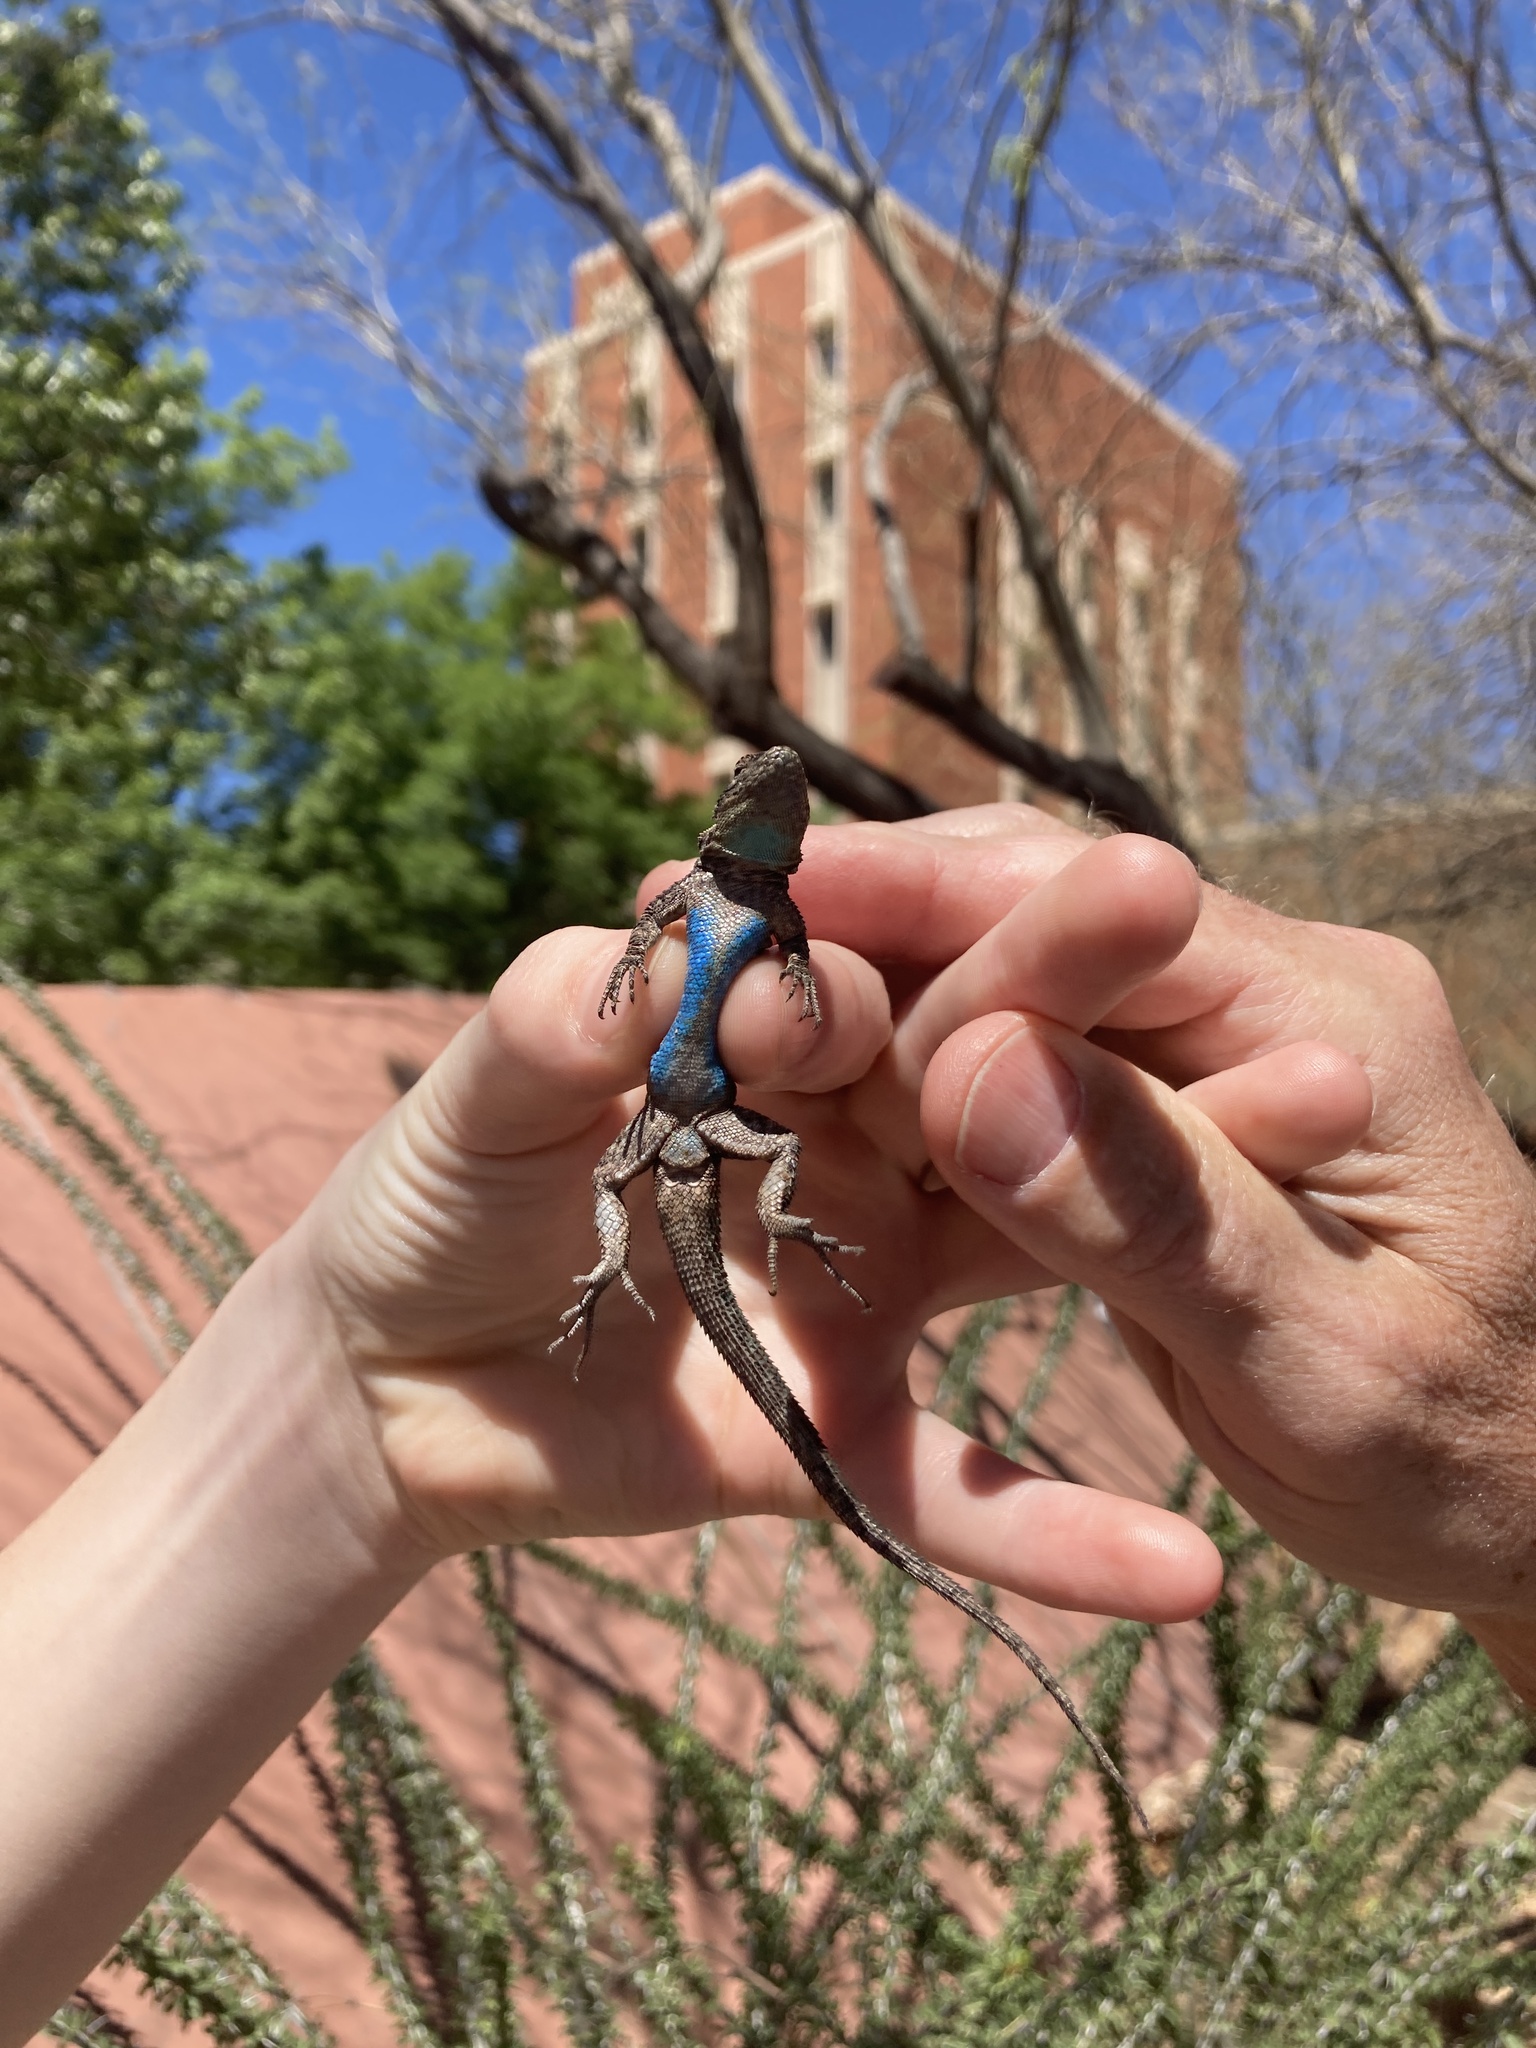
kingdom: Animalia
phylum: Chordata
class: Squamata
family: Phrynosomatidae
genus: Urosaurus
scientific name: Urosaurus ornatus
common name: Ornate tree lizard
